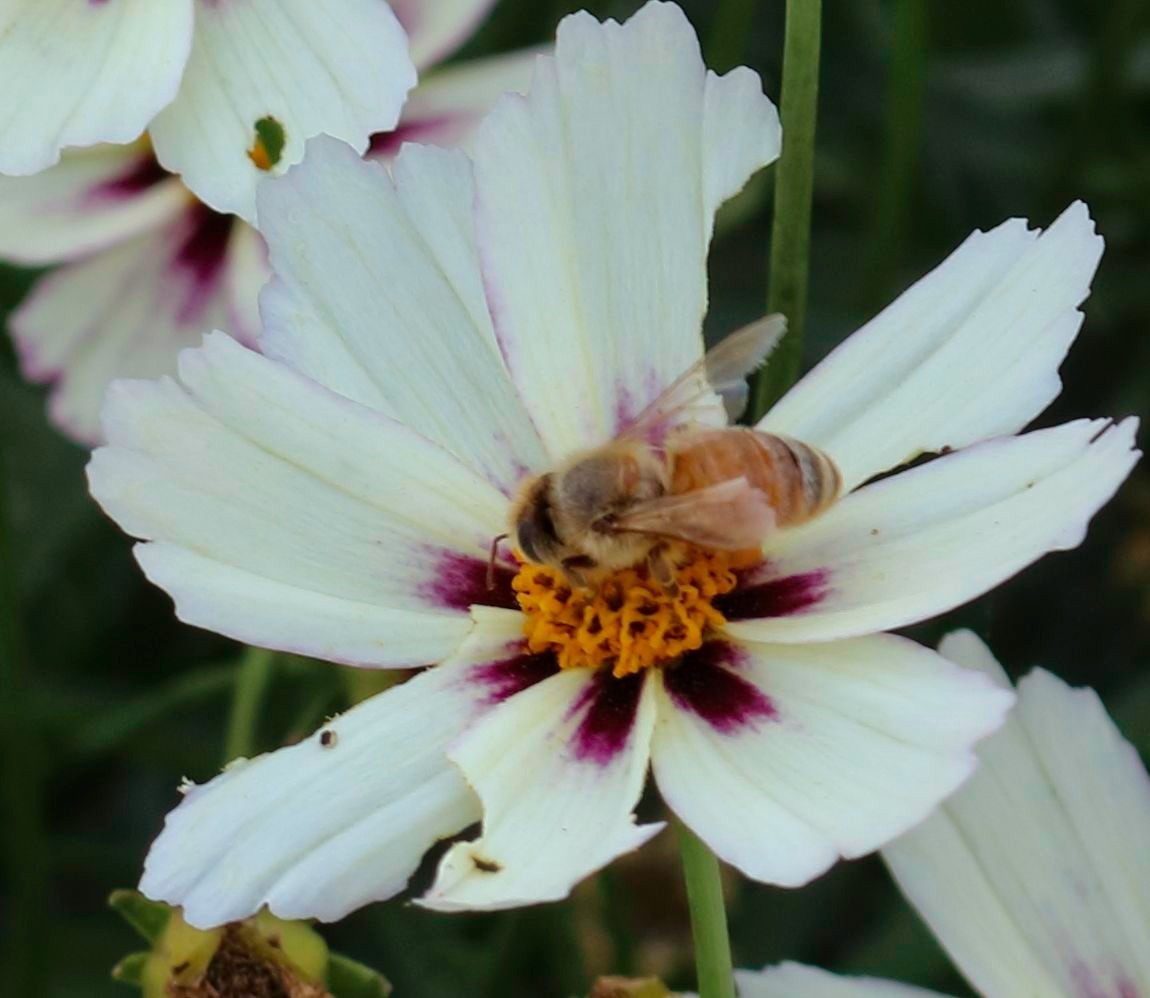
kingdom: Animalia
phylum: Arthropoda
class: Insecta
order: Hymenoptera
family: Apidae
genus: Apis
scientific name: Apis mellifera
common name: Honey bee
